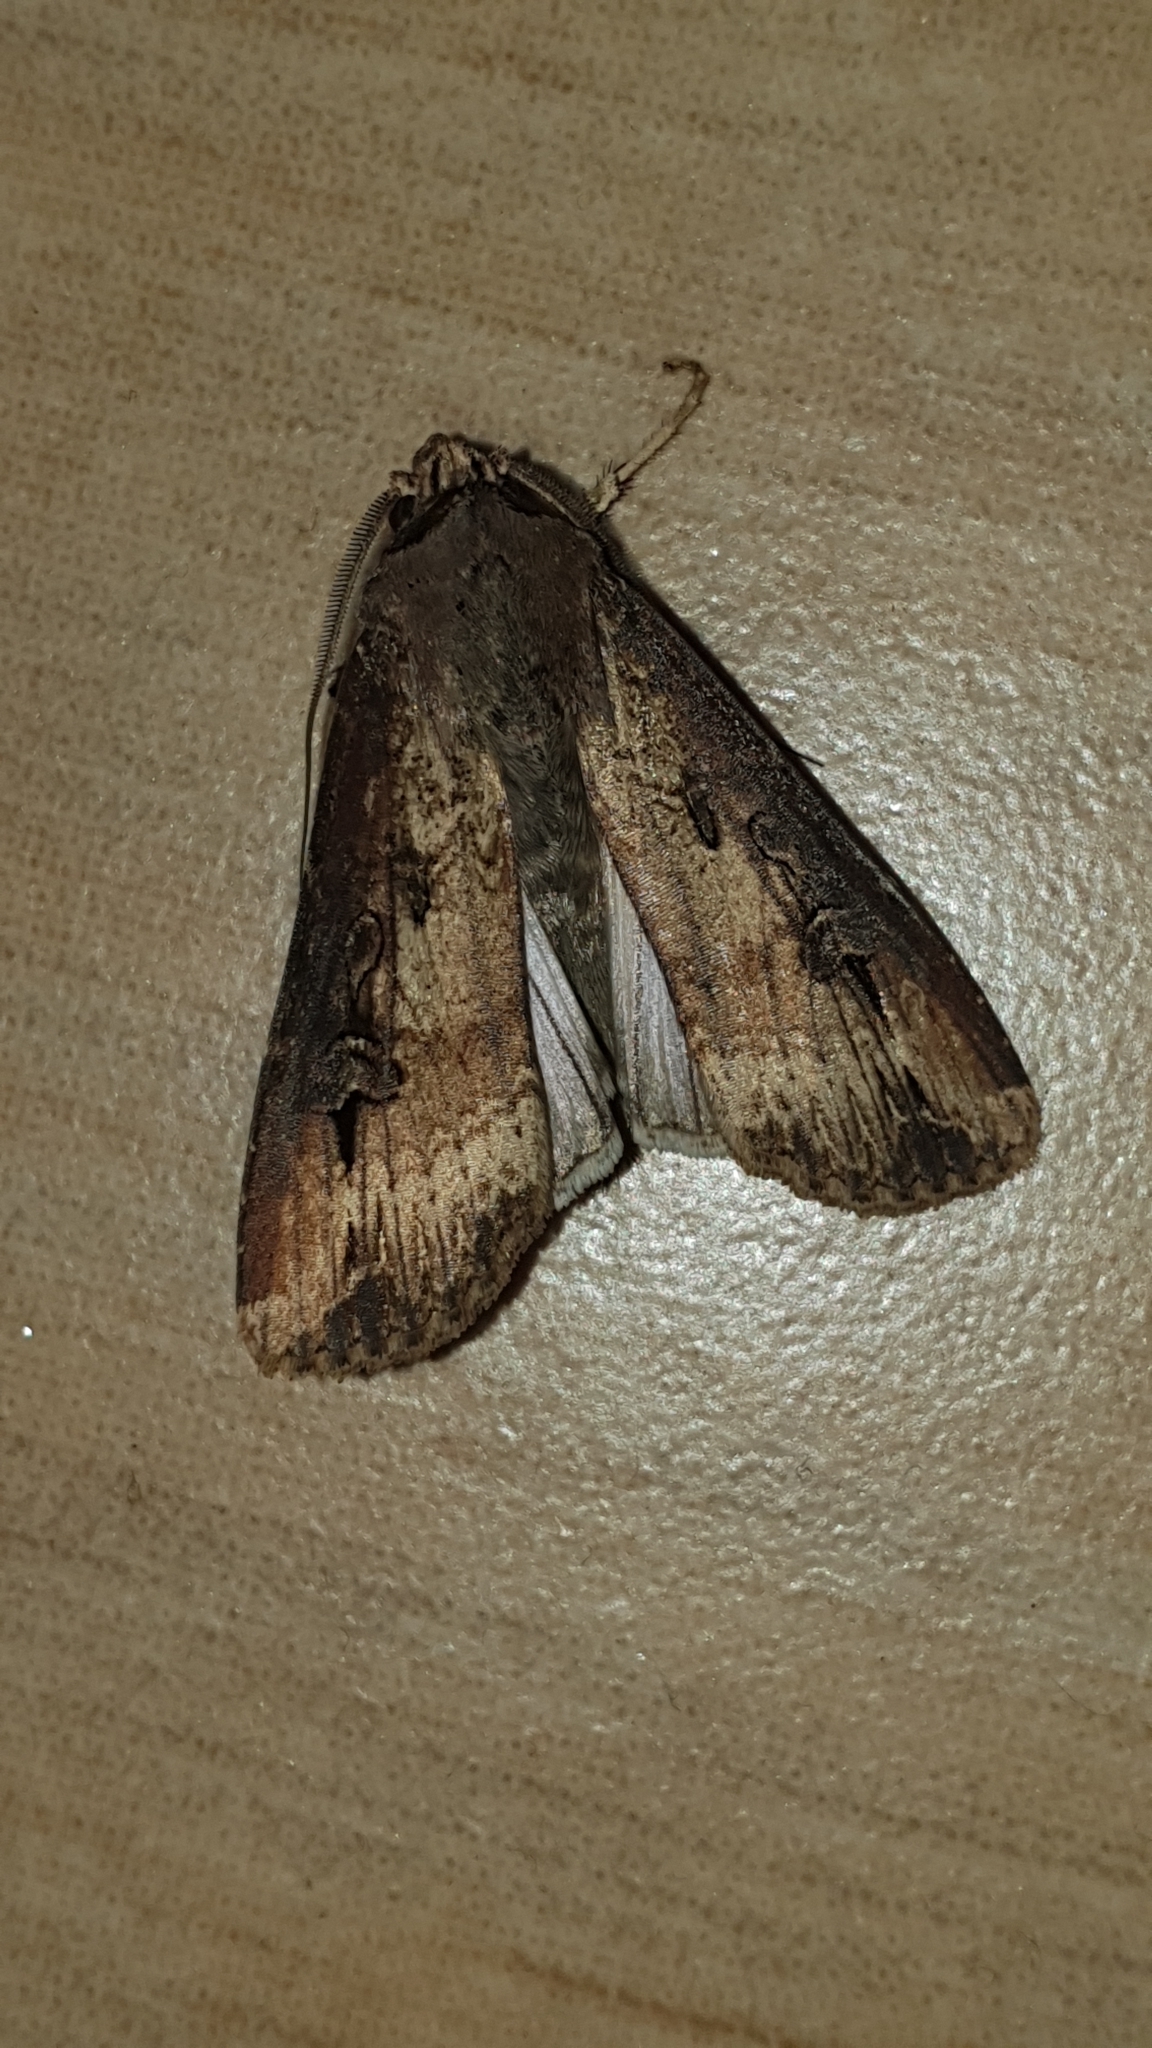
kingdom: Animalia
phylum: Arthropoda
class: Insecta
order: Lepidoptera
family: Noctuidae
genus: Agrotis
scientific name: Agrotis ipsilon
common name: Dark sword-grass
